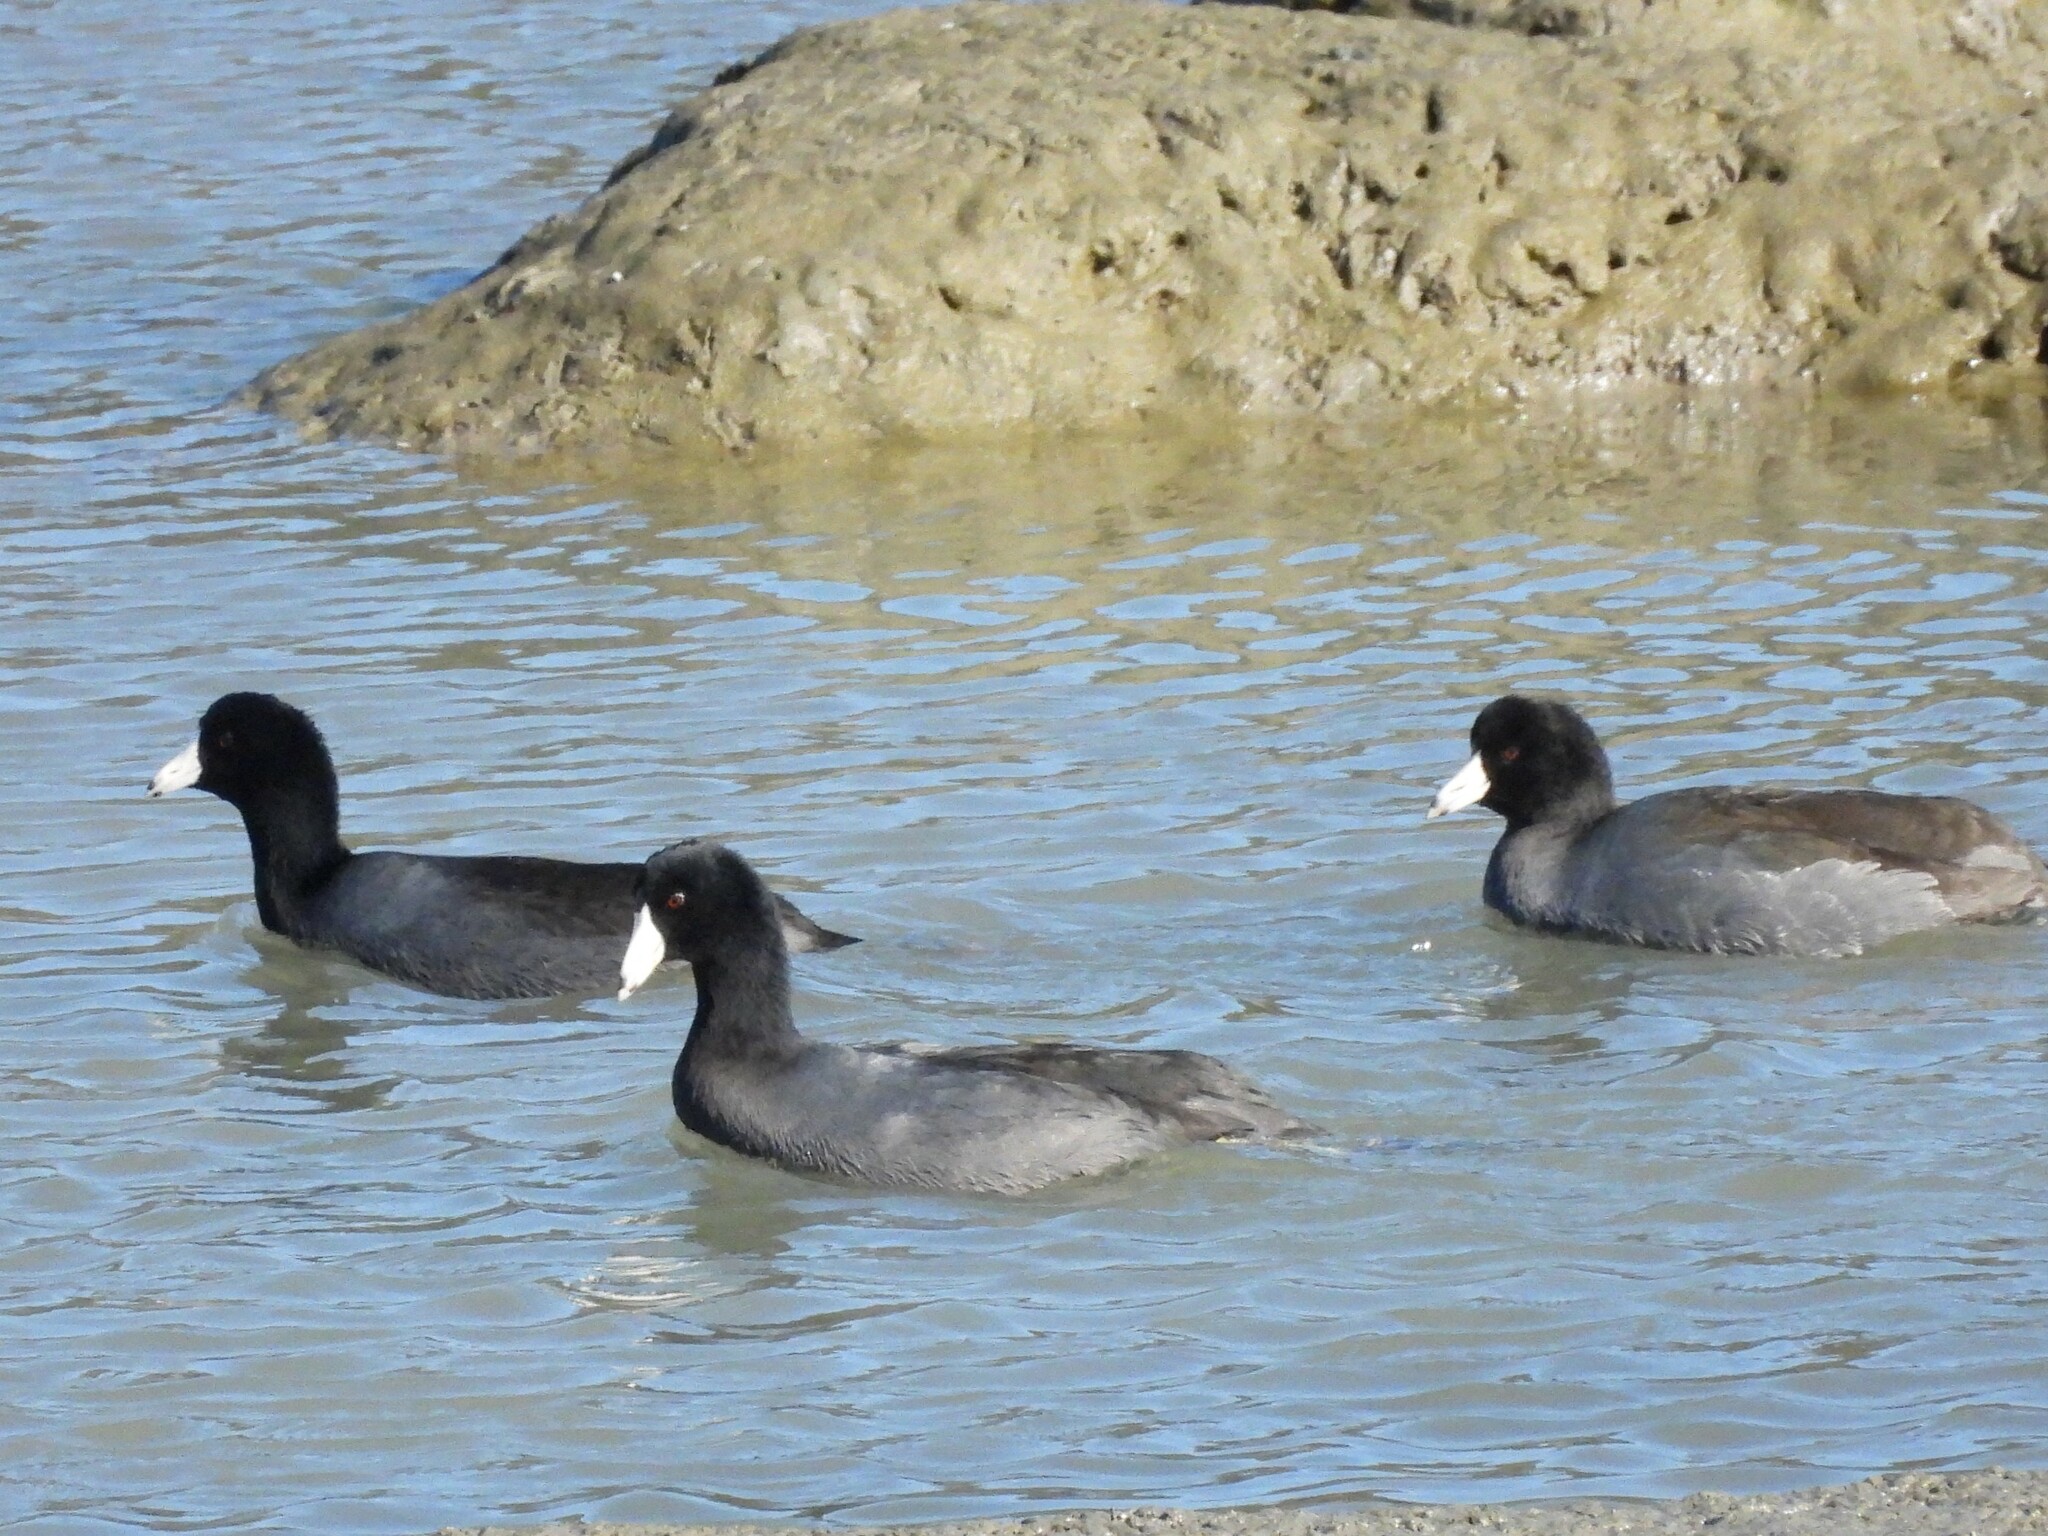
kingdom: Animalia
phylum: Chordata
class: Aves
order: Gruiformes
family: Rallidae
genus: Fulica
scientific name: Fulica americana
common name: American coot
